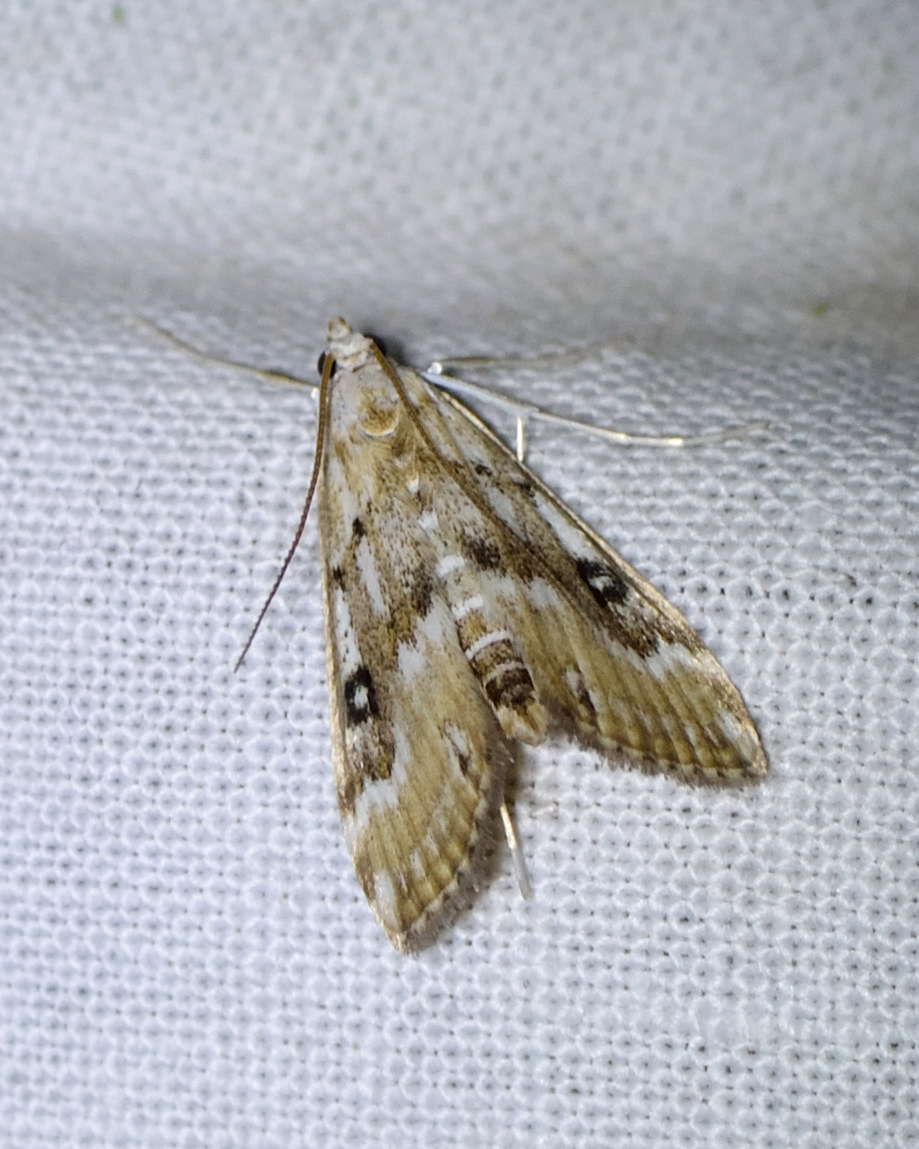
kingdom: Animalia
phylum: Arthropoda
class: Insecta
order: Lepidoptera
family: Crambidae
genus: Parapoynx
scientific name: Parapoynx stratiotata
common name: Ringed china-mark
